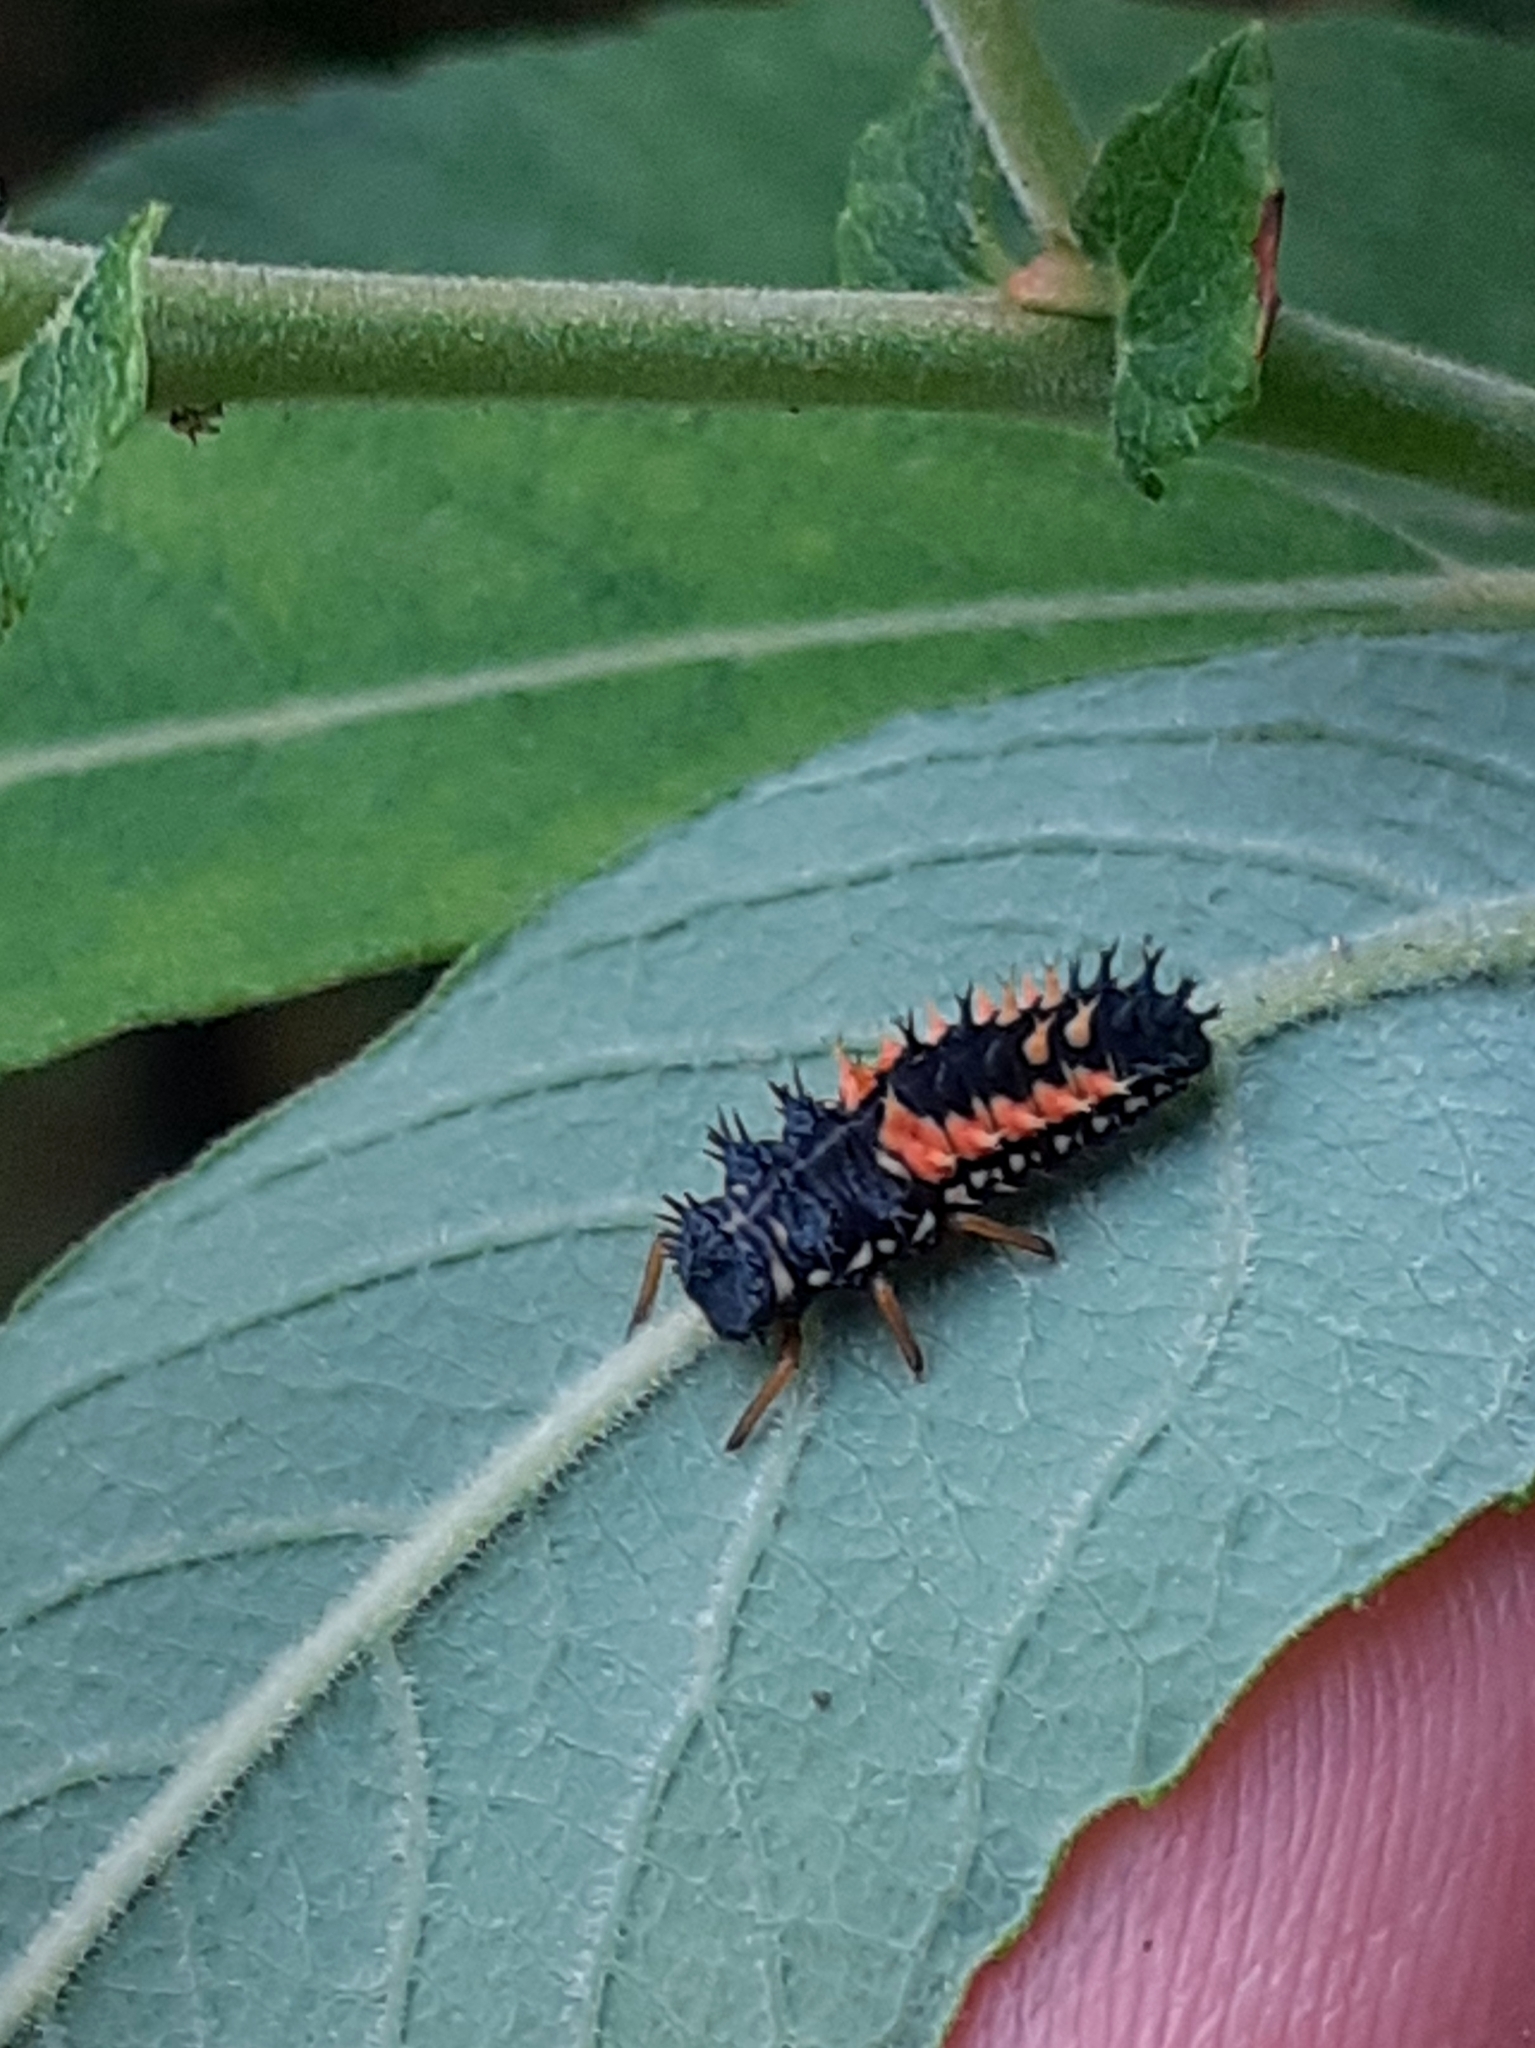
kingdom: Animalia
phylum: Arthropoda
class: Insecta
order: Coleoptera
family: Coccinellidae
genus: Harmonia
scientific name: Harmonia axyridis
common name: Harlequin ladybird
